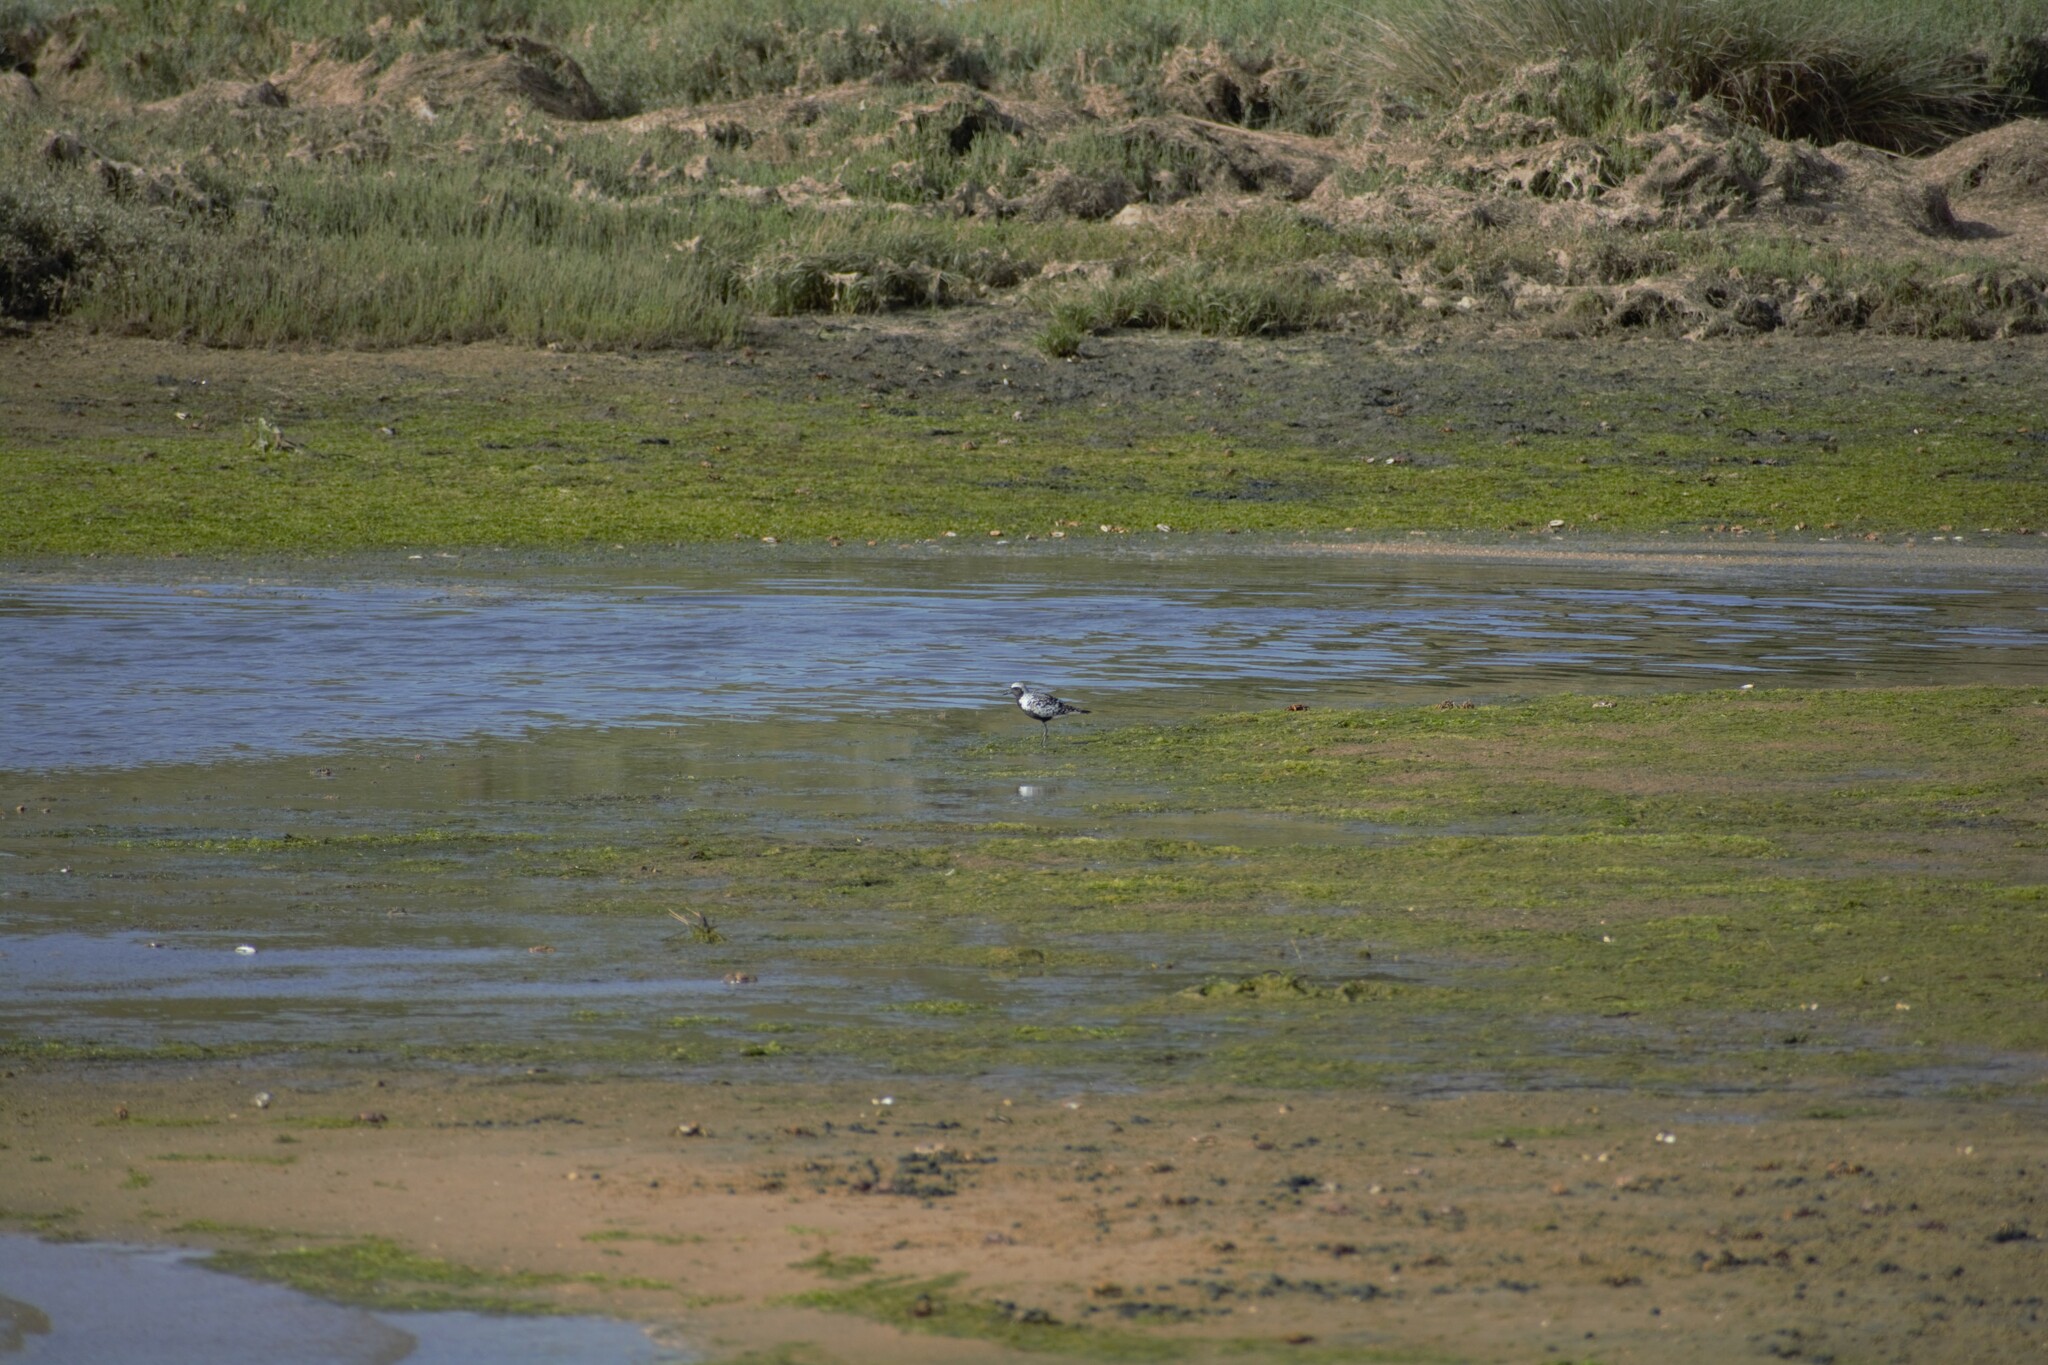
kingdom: Animalia
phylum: Chordata
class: Aves
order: Charadriiformes
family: Charadriidae
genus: Pluvialis
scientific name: Pluvialis squatarola
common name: Grey plover
